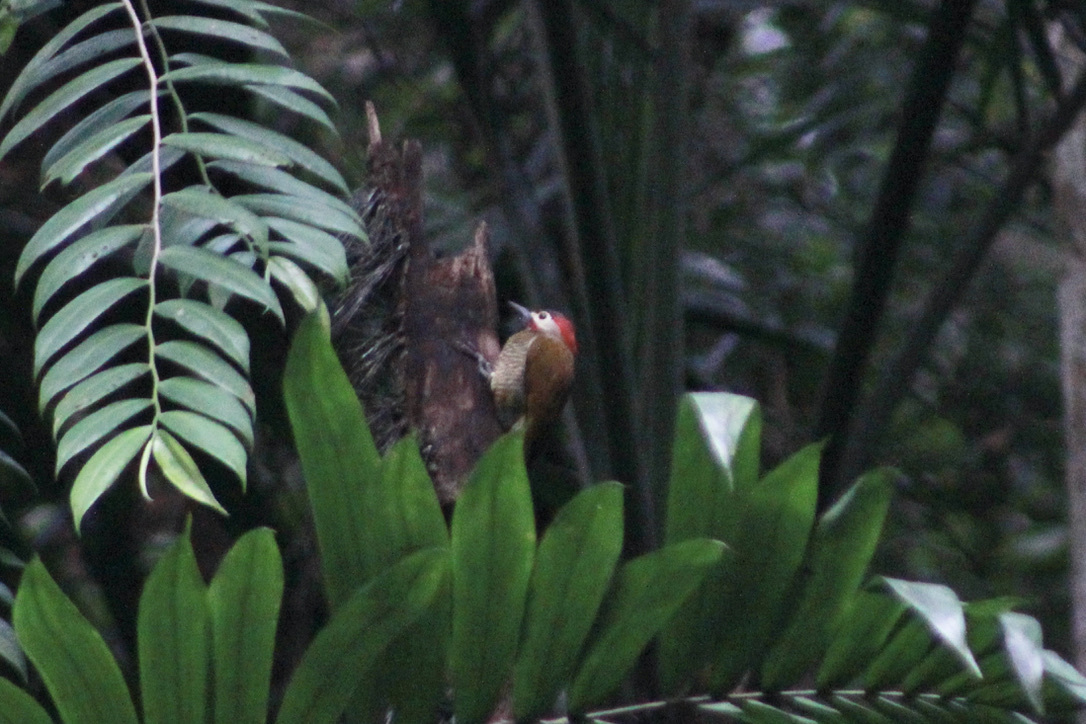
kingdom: Animalia
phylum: Chordata
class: Aves
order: Piciformes
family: Picidae
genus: Colaptes
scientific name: Colaptes rubiginosus
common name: Golden-olive woodpecker
